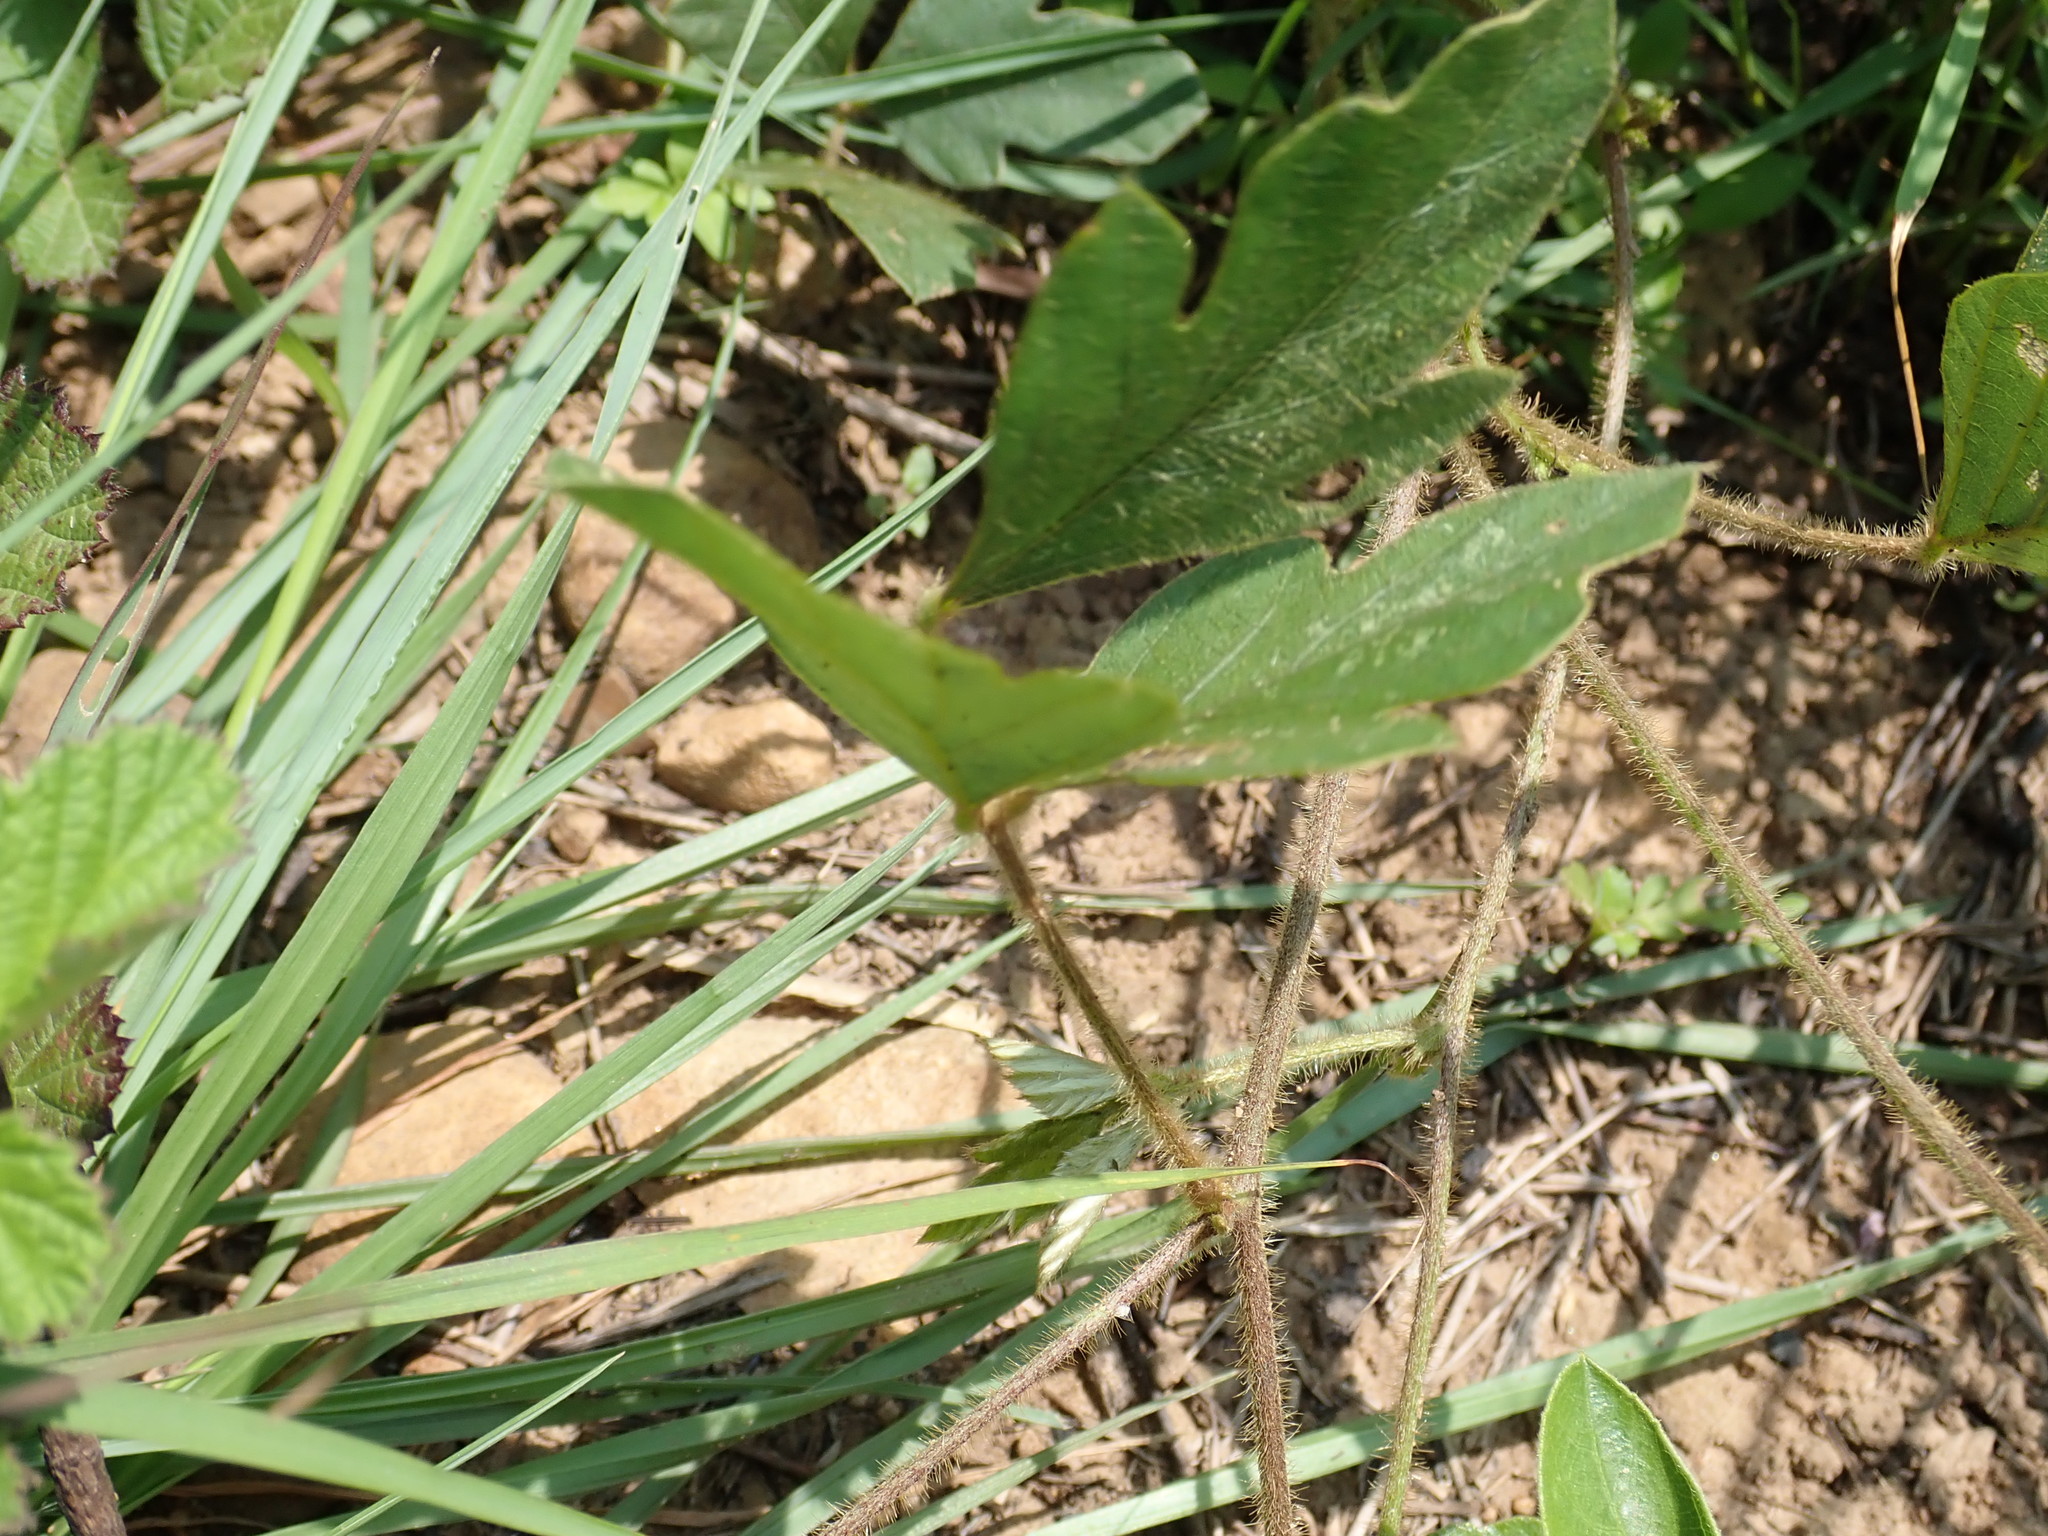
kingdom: Plantae
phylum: Tracheophyta
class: Magnoliopsida
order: Fabales
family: Fabaceae
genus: Neustanthus
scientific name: Neustanthus phaseoloides
